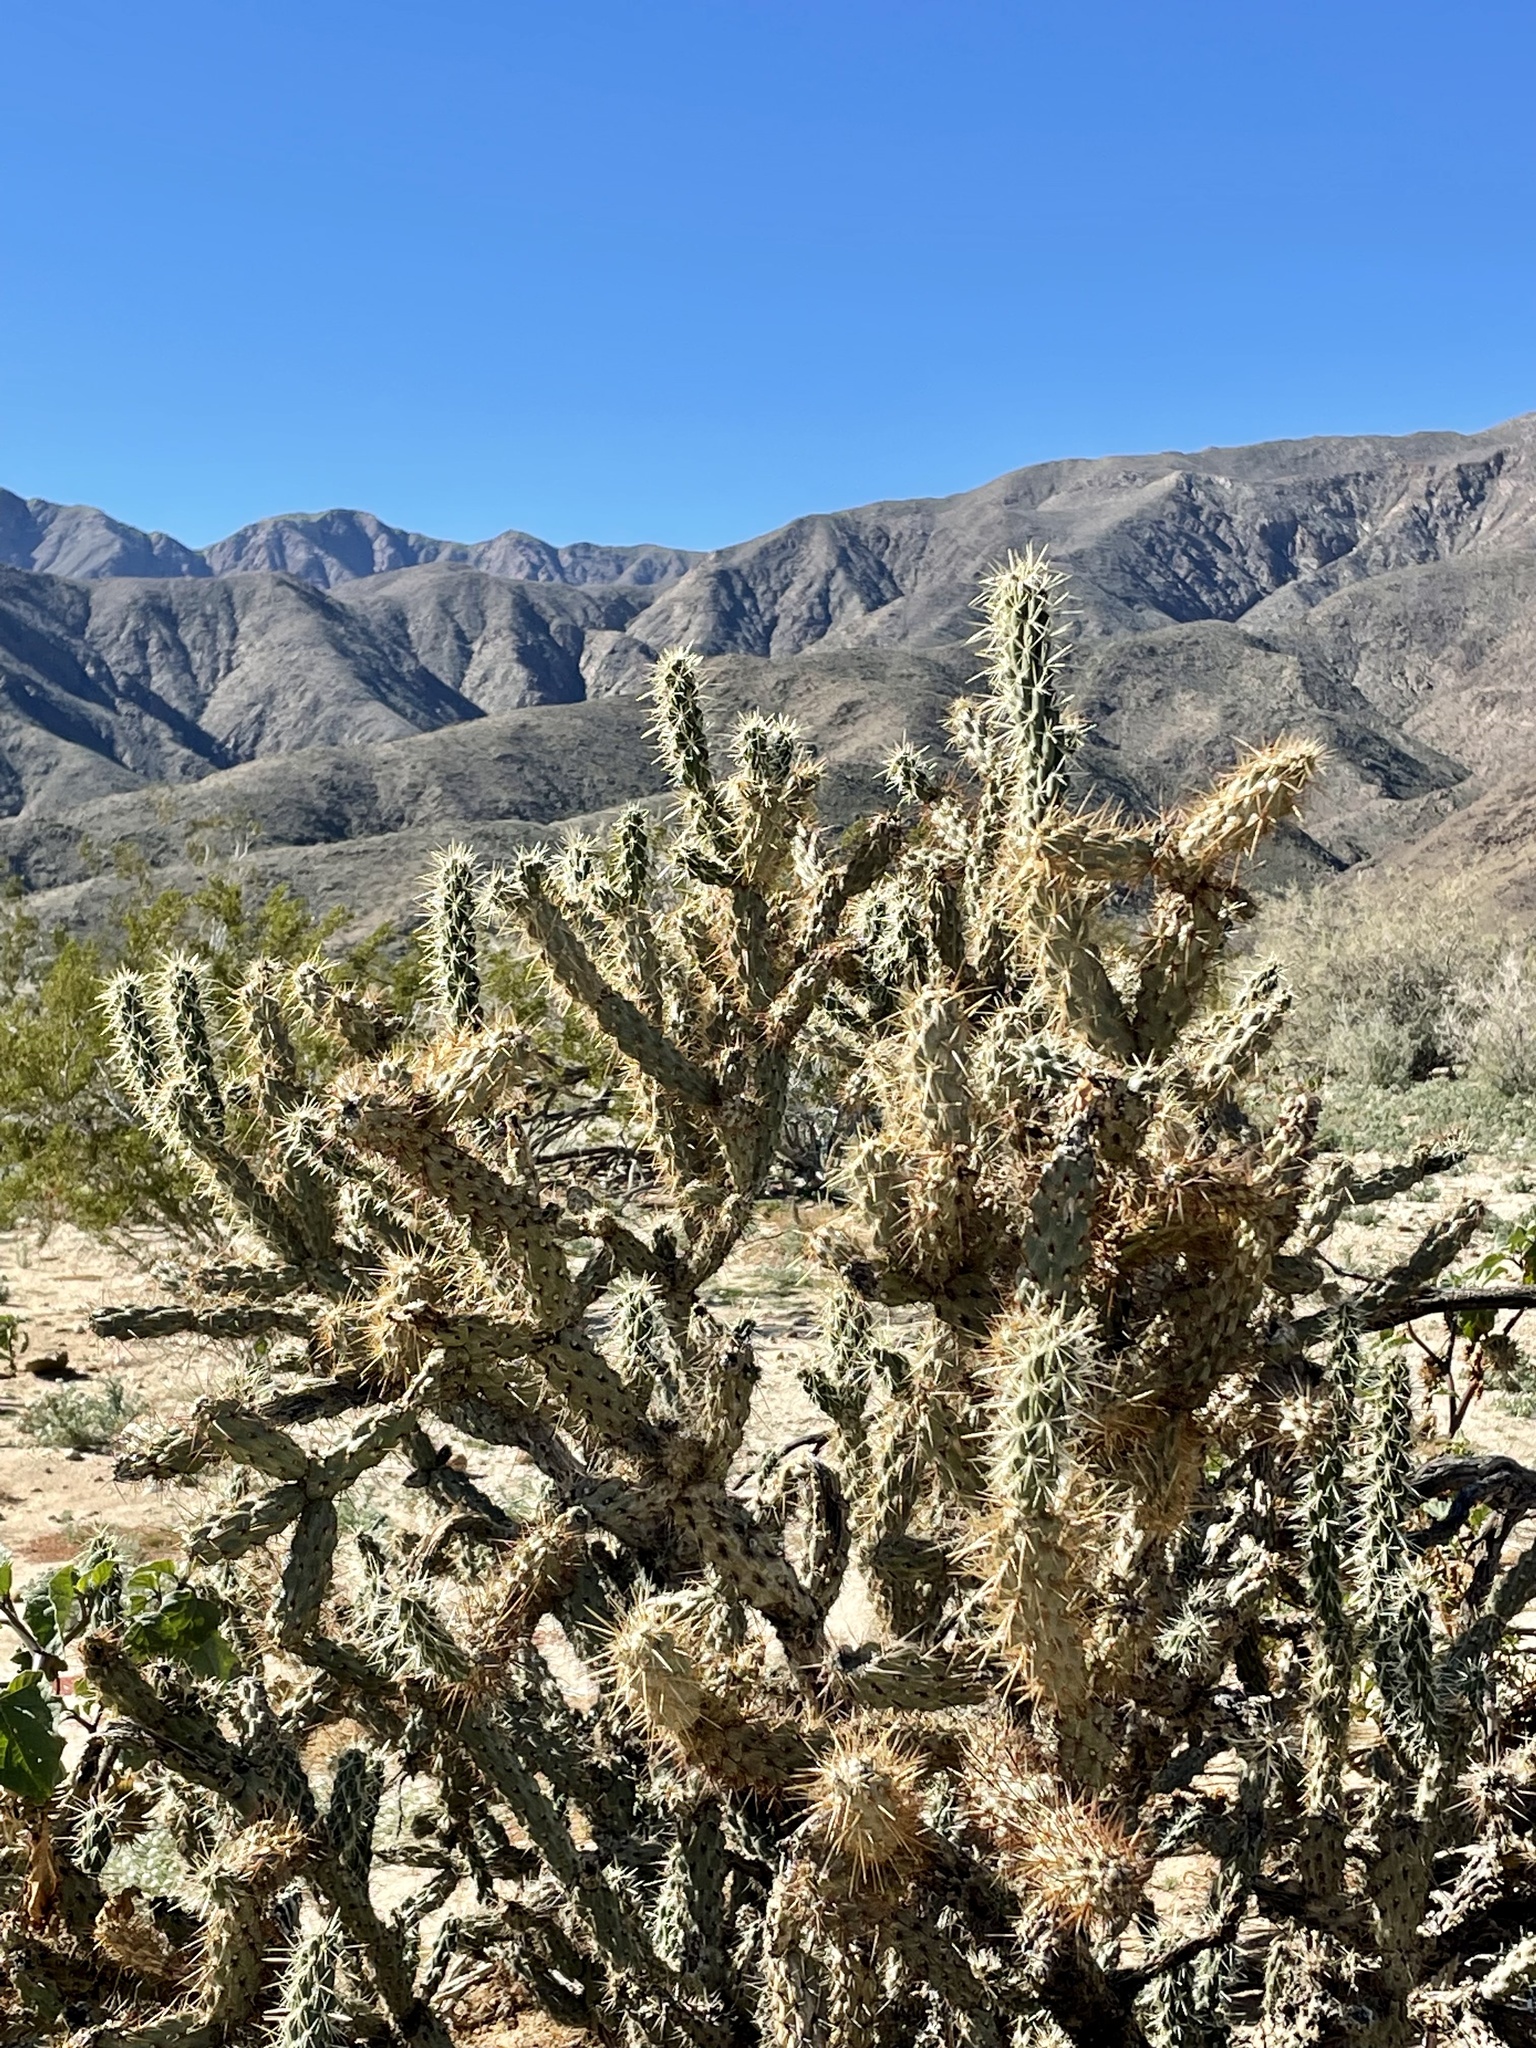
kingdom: Plantae
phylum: Tracheophyta
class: Magnoliopsida
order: Caryophyllales
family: Cactaceae
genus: Cylindropuntia
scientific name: Cylindropuntia ganderi
